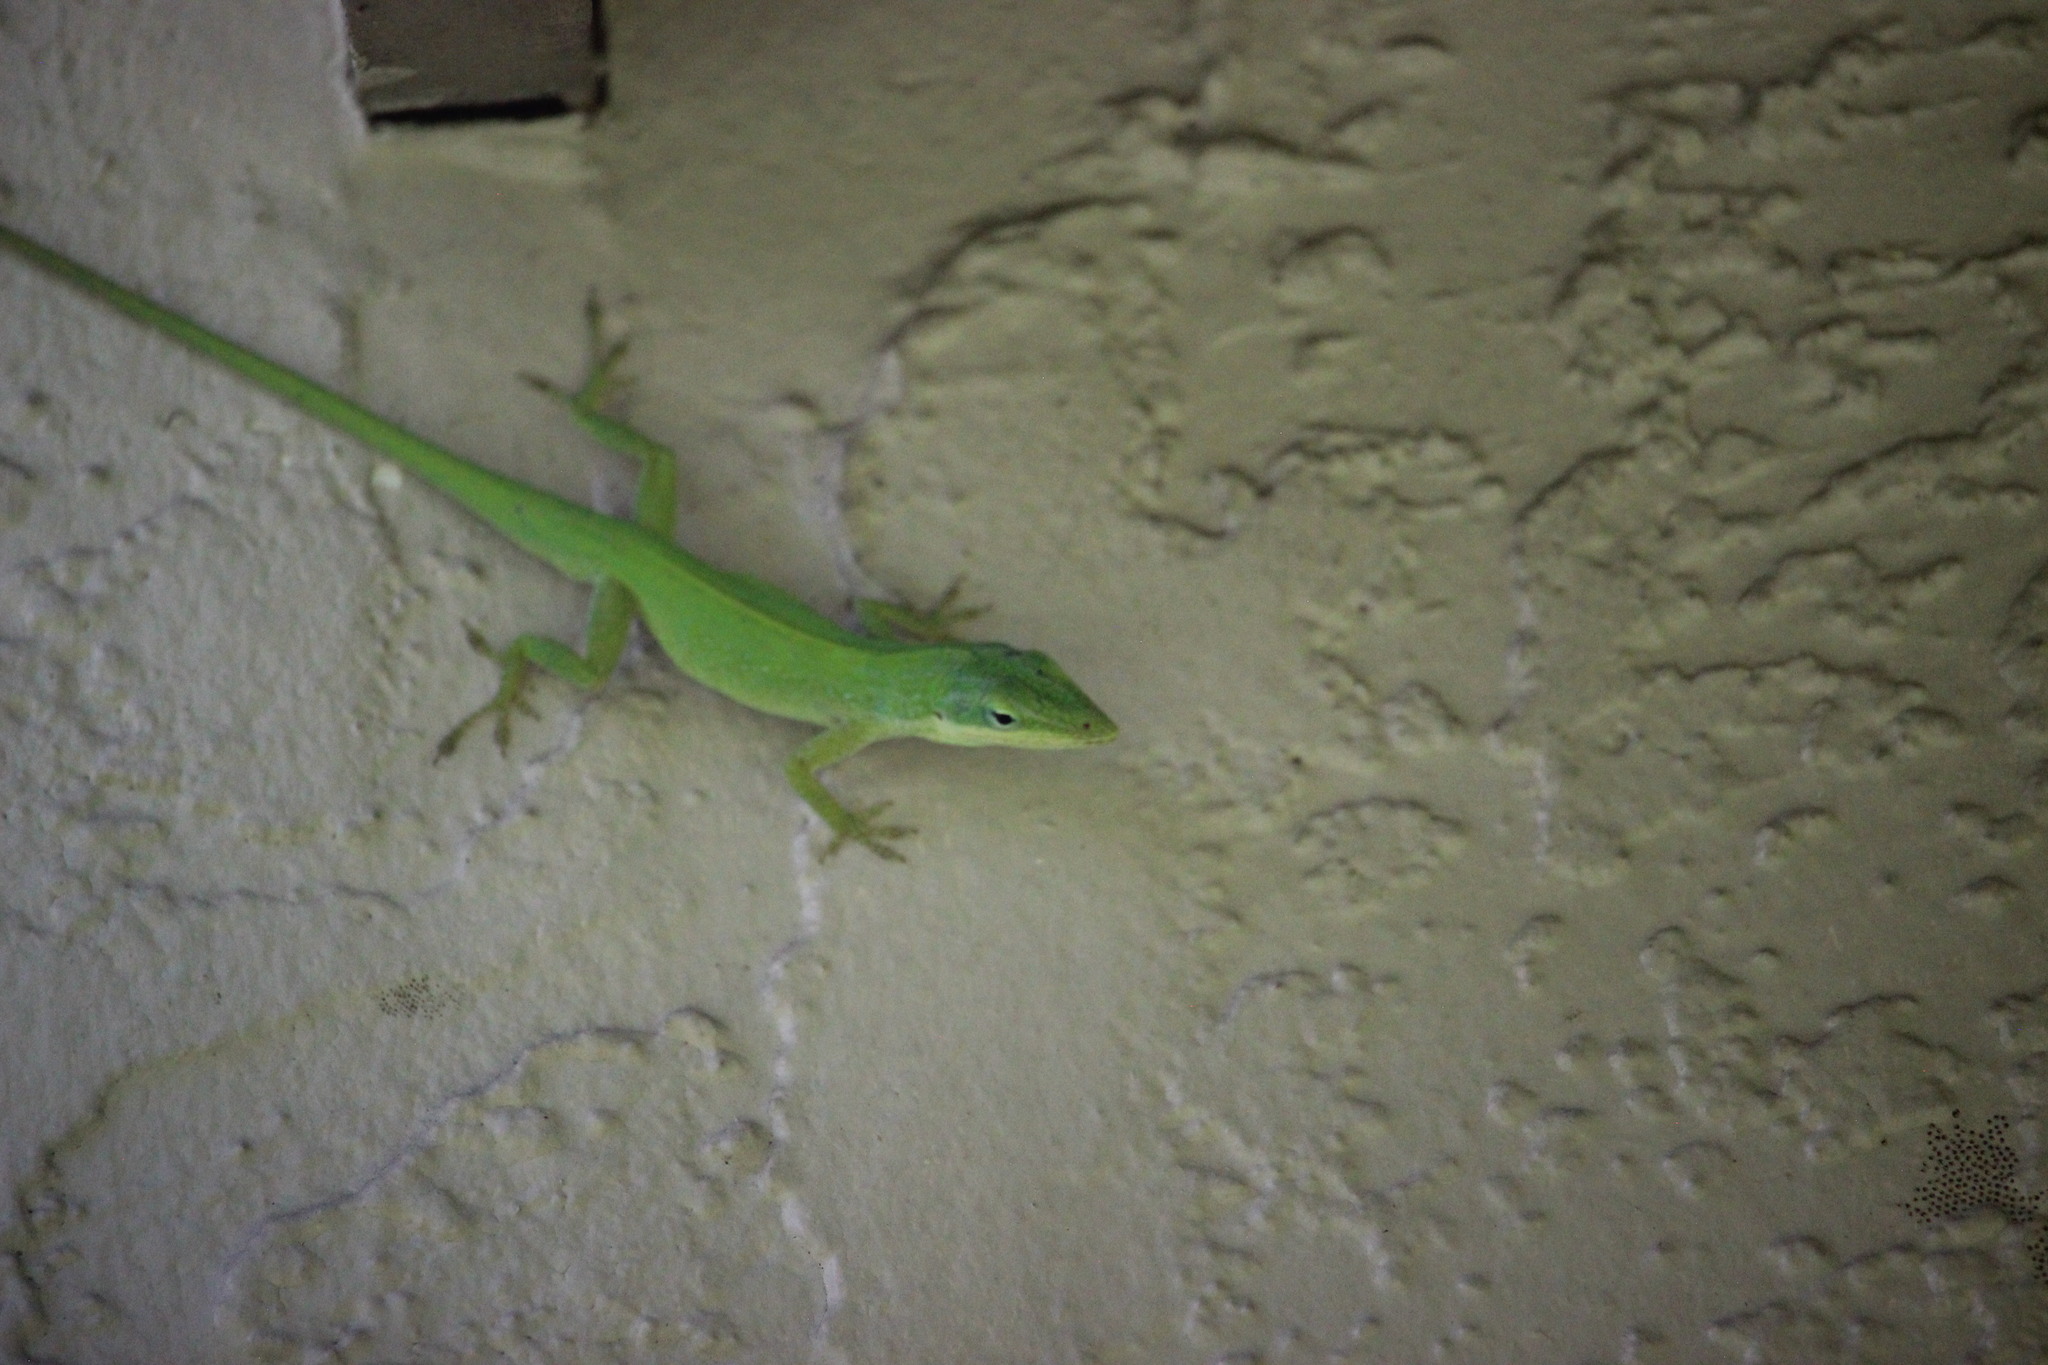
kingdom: Animalia
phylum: Chordata
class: Squamata
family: Dactyloidae
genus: Anolis
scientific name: Anolis carolinensis
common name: Green anole
